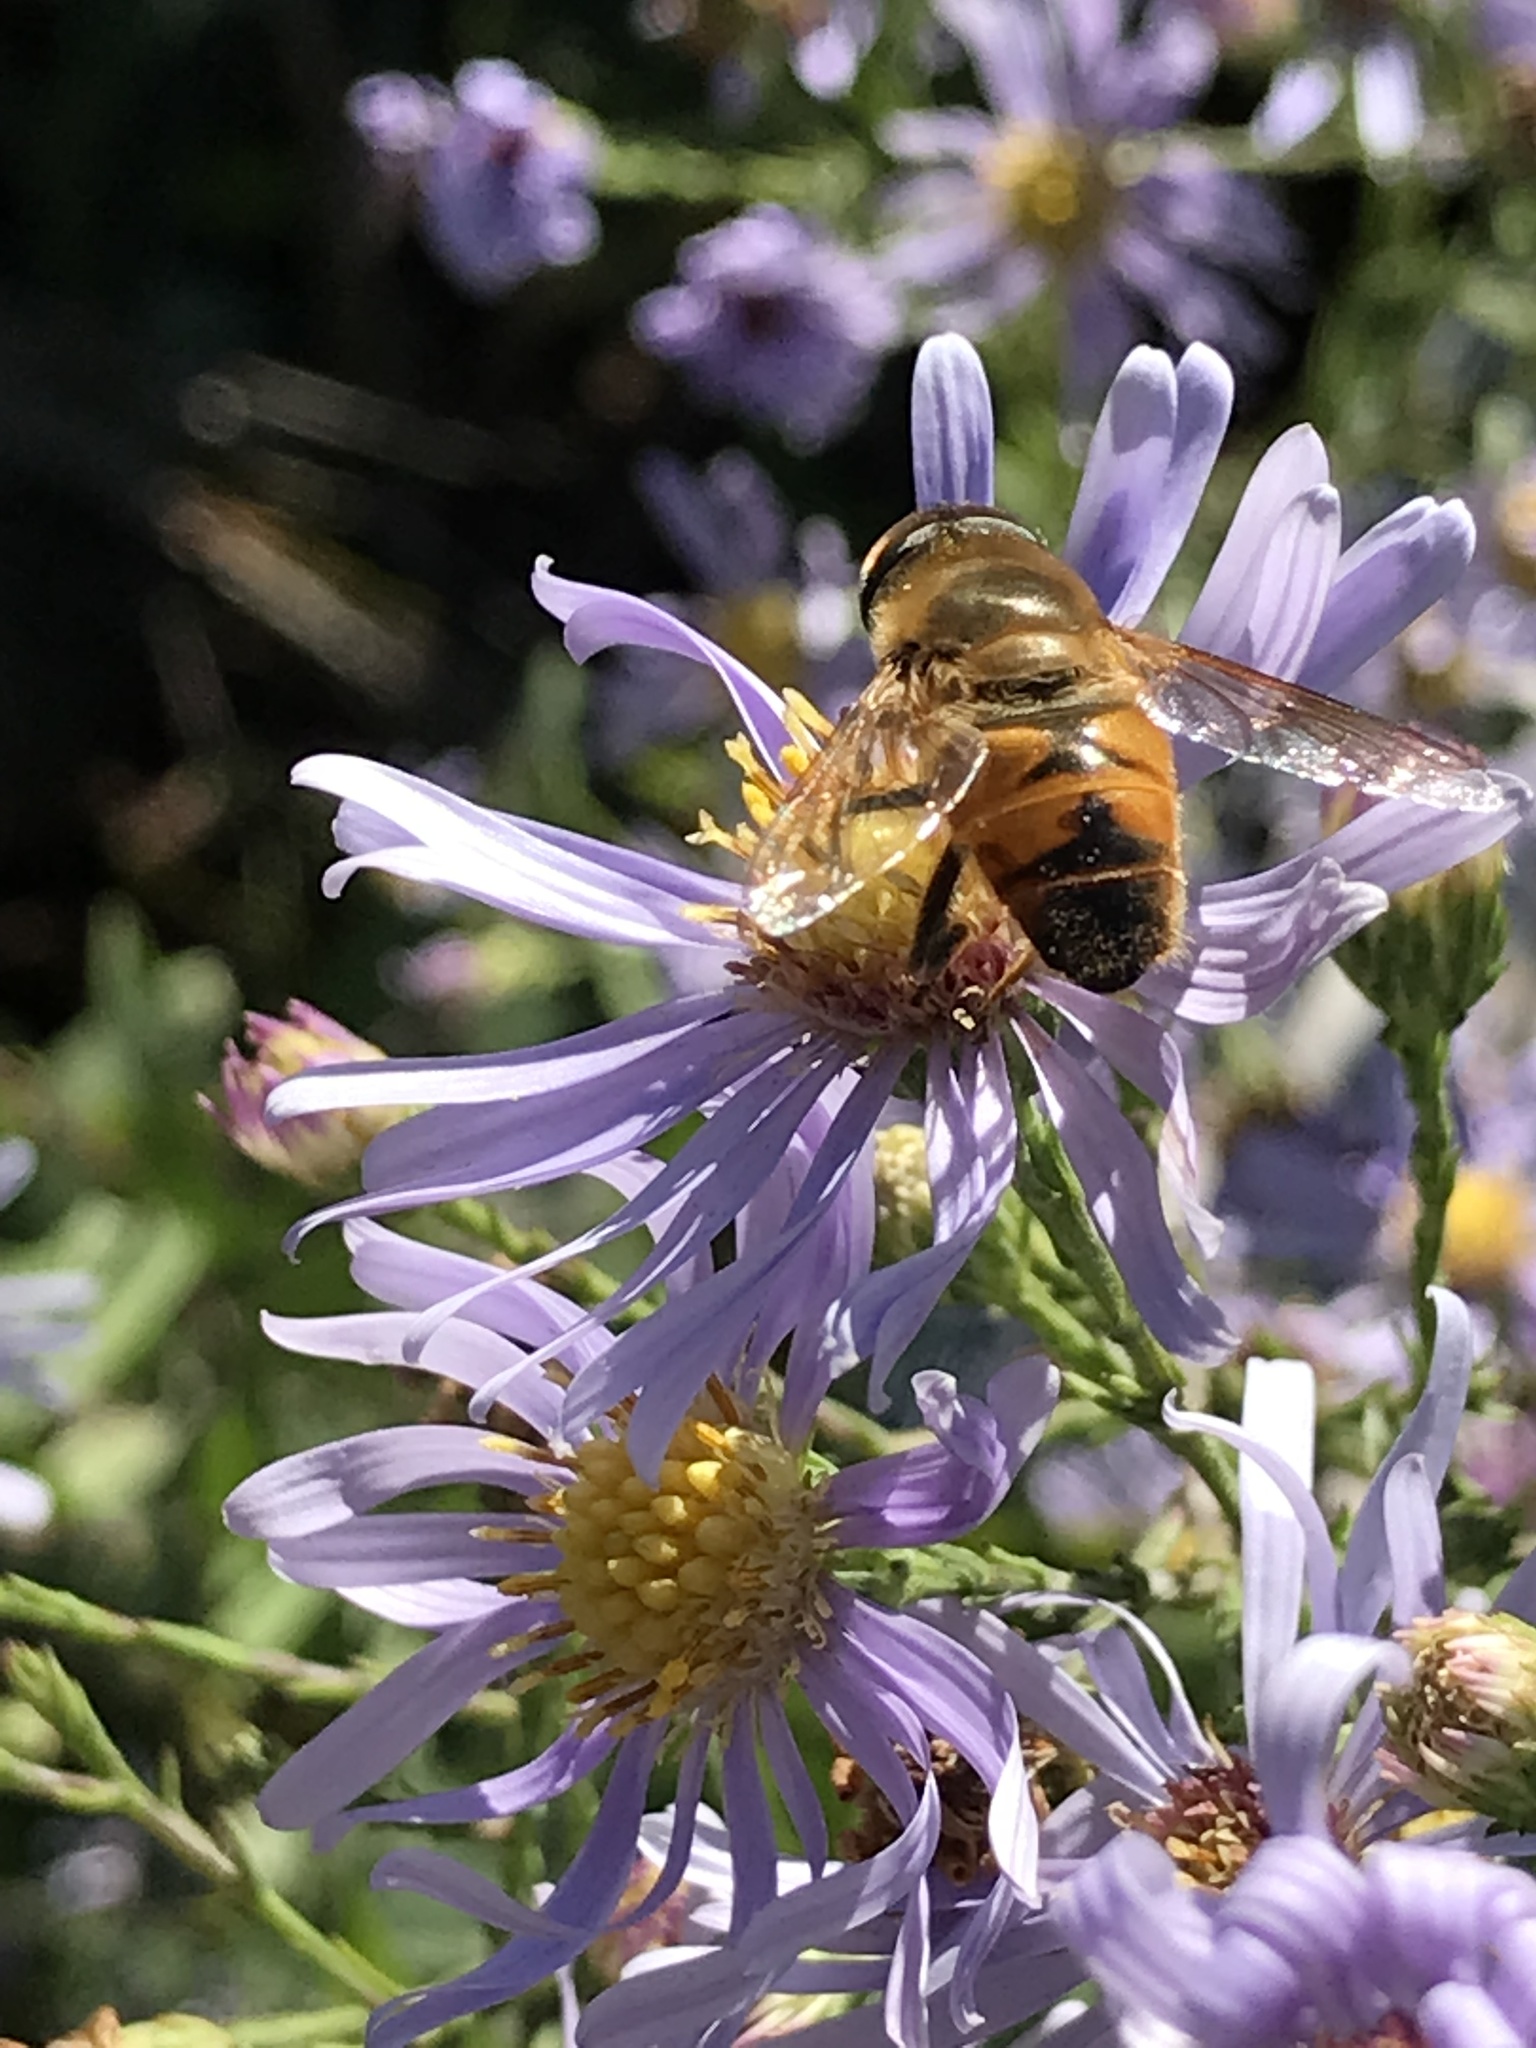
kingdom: Animalia
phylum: Arthropoda
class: Insecta
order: Diptera
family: Syrphidae
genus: Eristalis
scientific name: Eristalis tenax
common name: Drone fly
